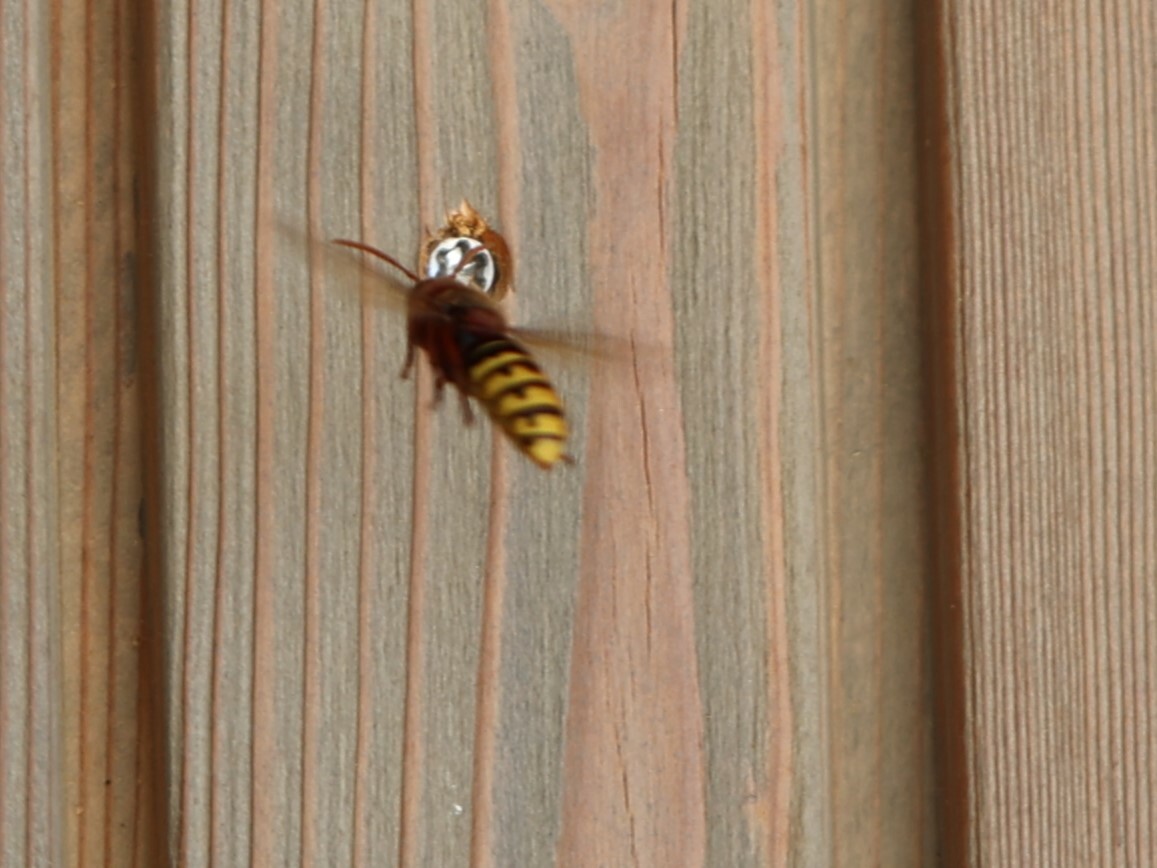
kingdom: Animalia
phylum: Arthropoda
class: Insecta
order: Hymenoptera
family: Vespidae
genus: Vespa
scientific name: Vespa crabro
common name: Hornet
